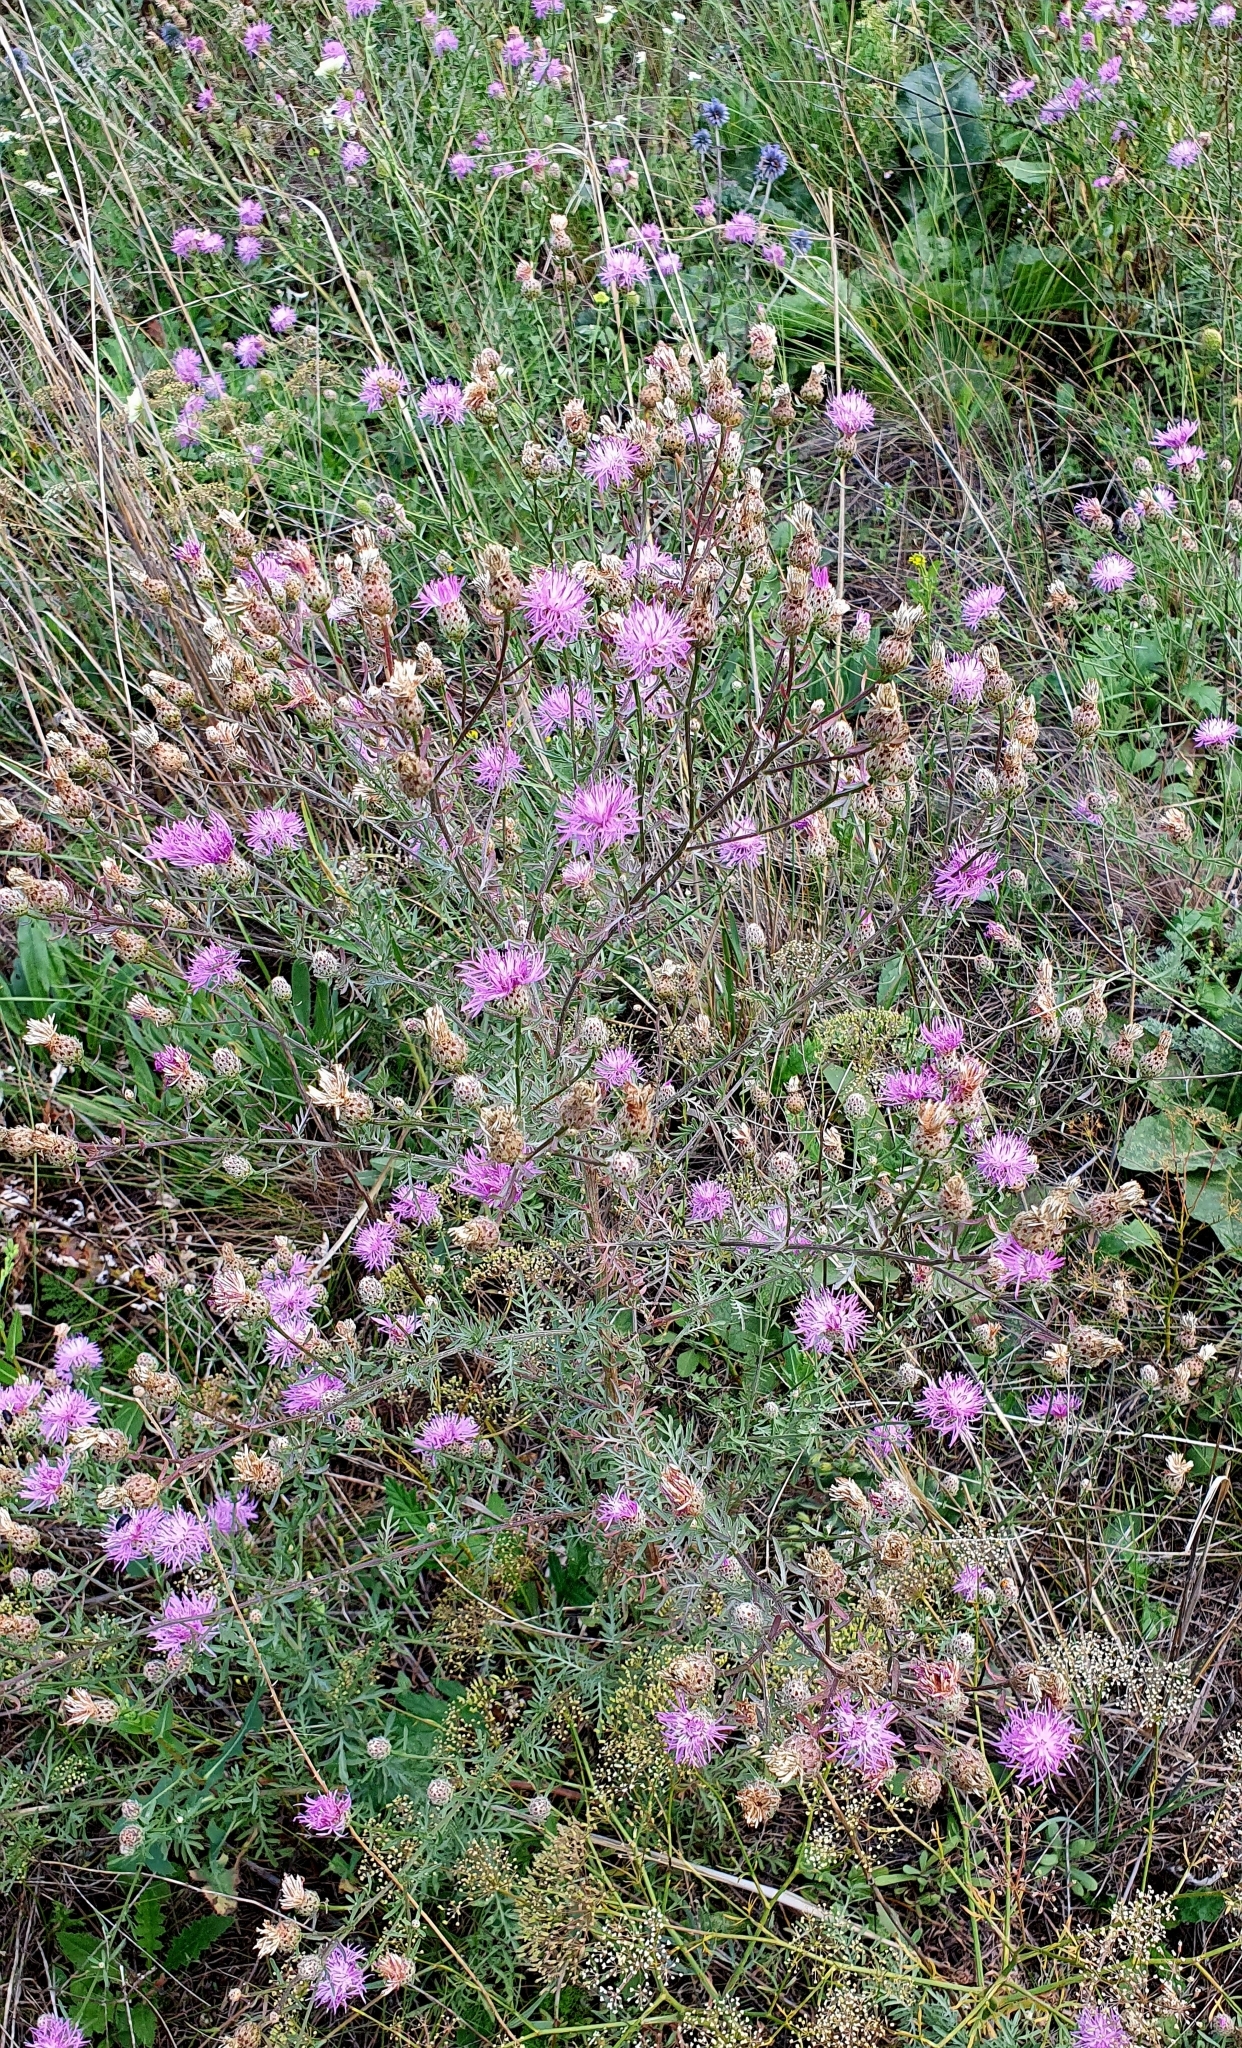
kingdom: Plantae
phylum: Tracheophyta
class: Magnoliopsida
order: Asterales
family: Asteraceae
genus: Centaurea
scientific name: Centaurea stoebe
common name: Spotted knapweed
